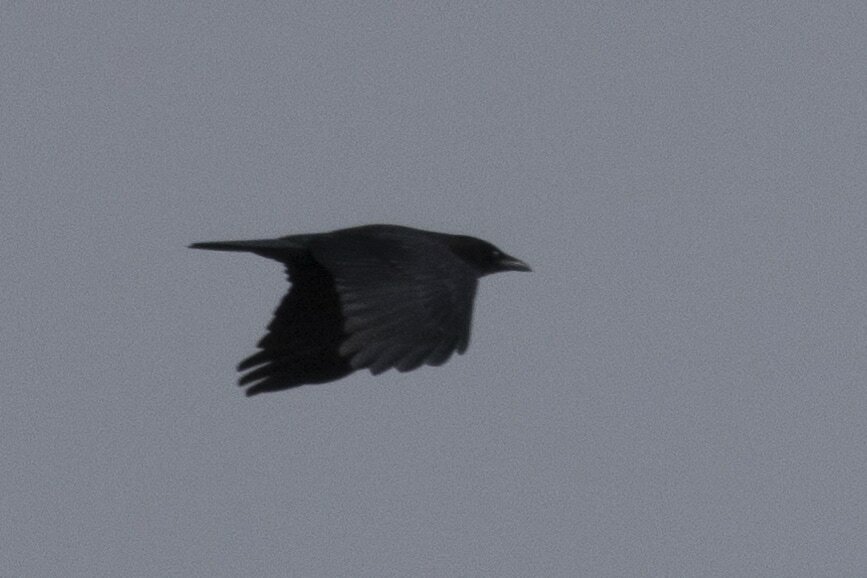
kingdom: Animalia
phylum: Chordata
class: Aves
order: Passeriformes
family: Corvidae
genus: Corvus
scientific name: Corvus corone
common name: Carrion crow
